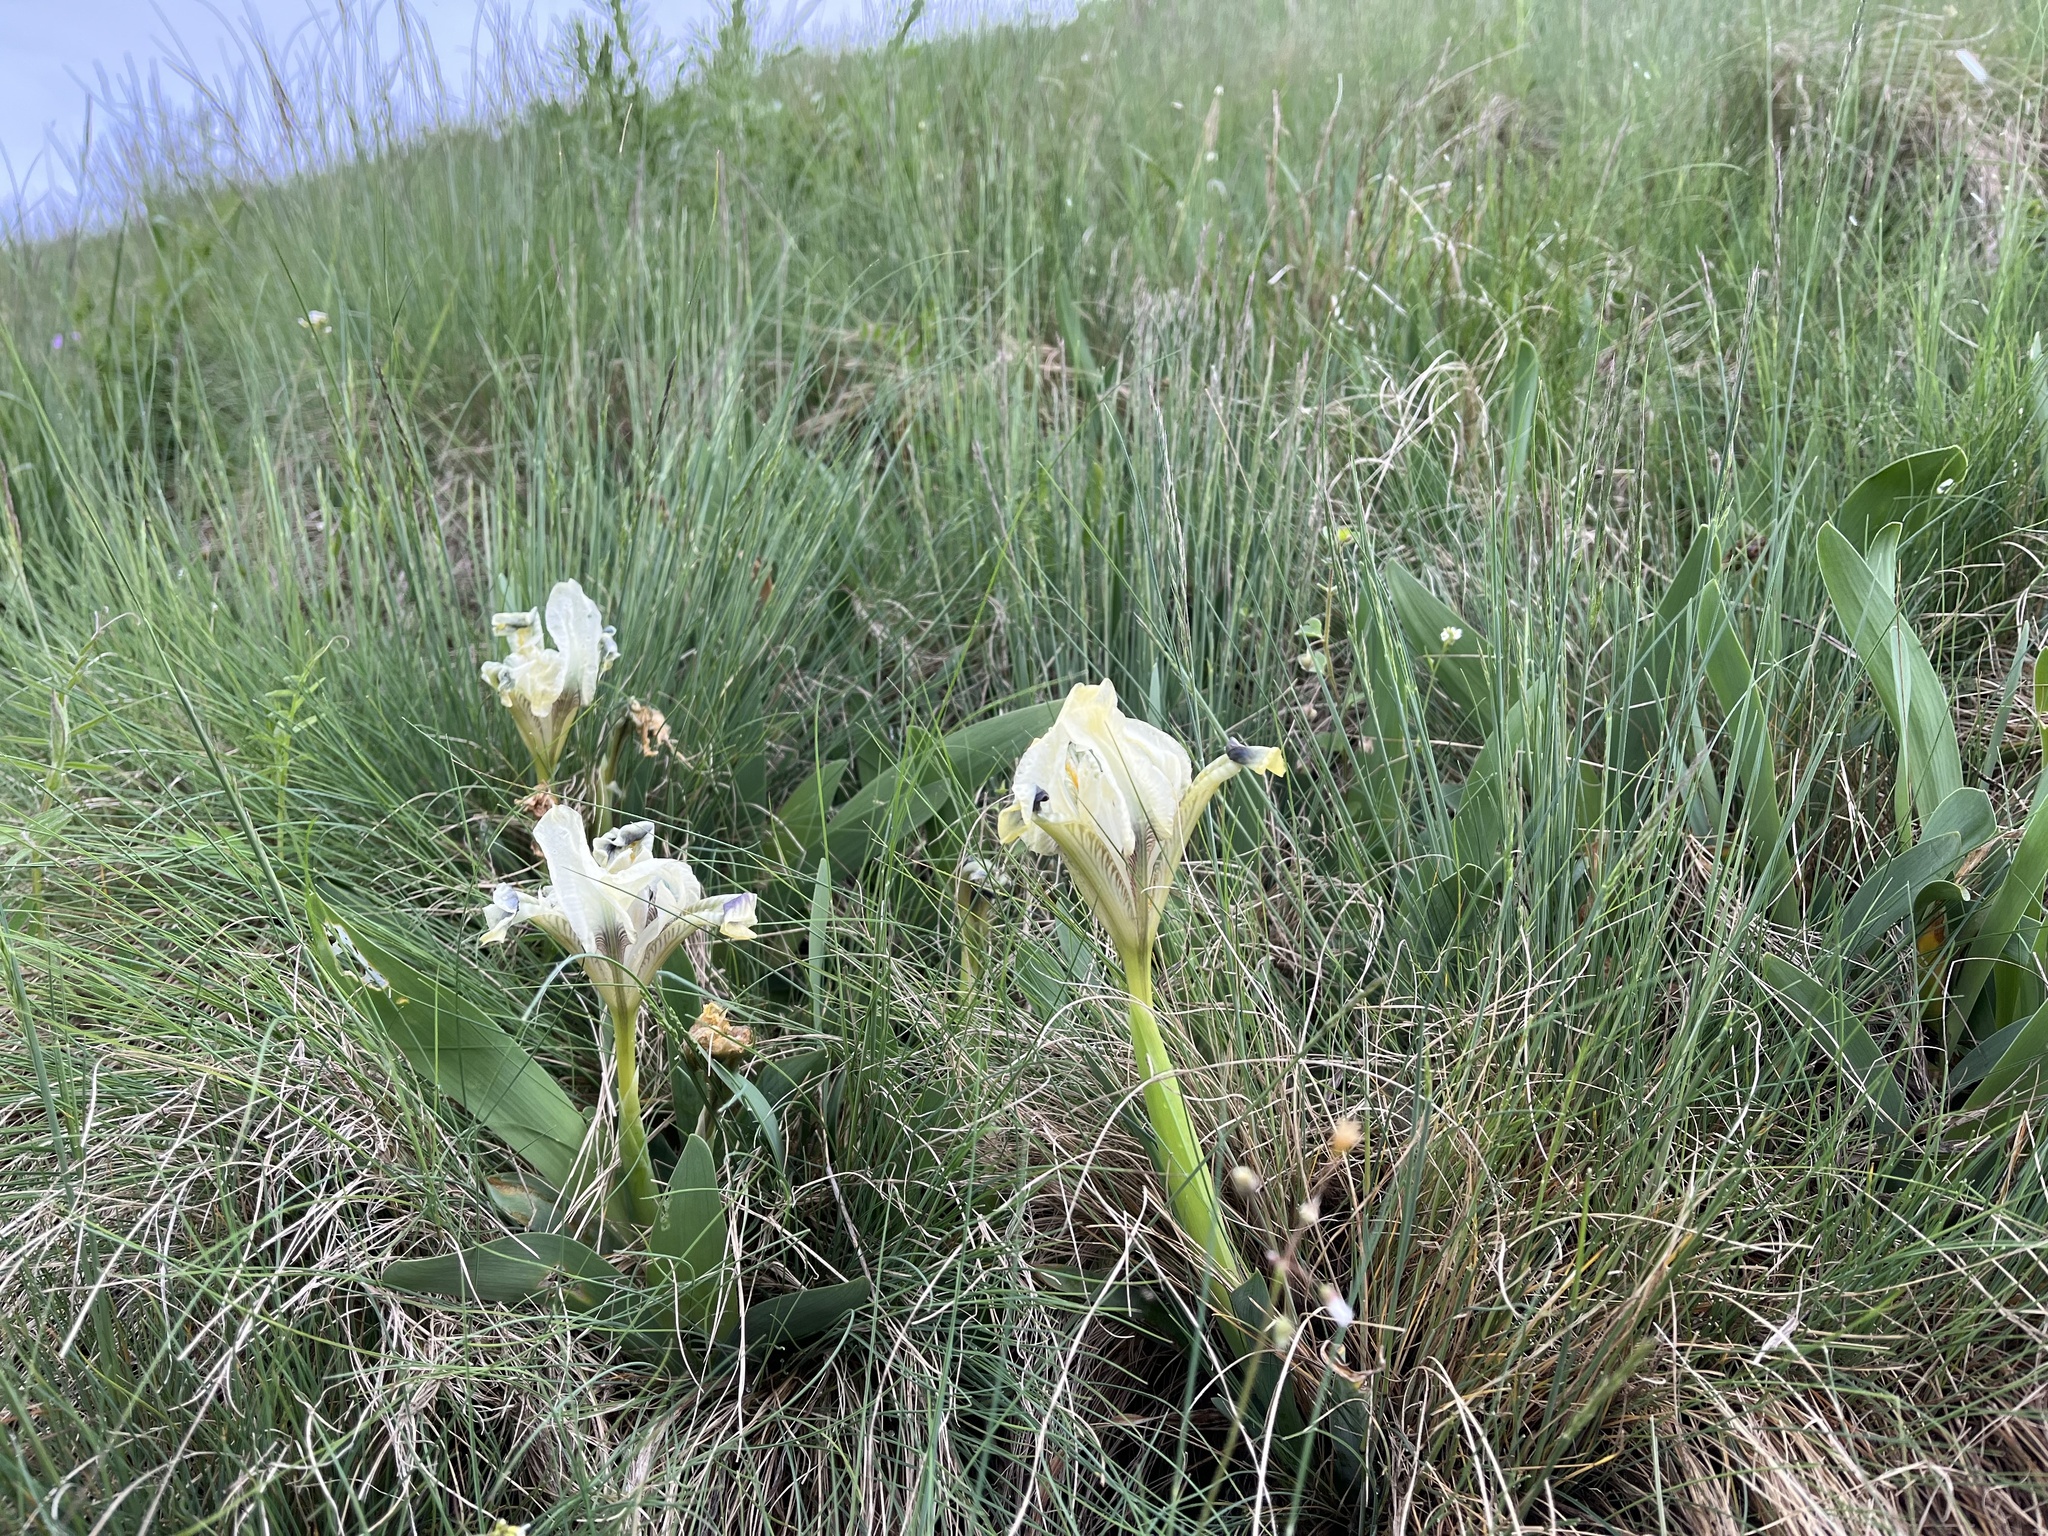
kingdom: Plantae
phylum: Tracheophyta
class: Liliopsida
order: Asparagales
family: Iridaceae
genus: Iris
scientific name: Iris pumila
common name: Dwarf iris
